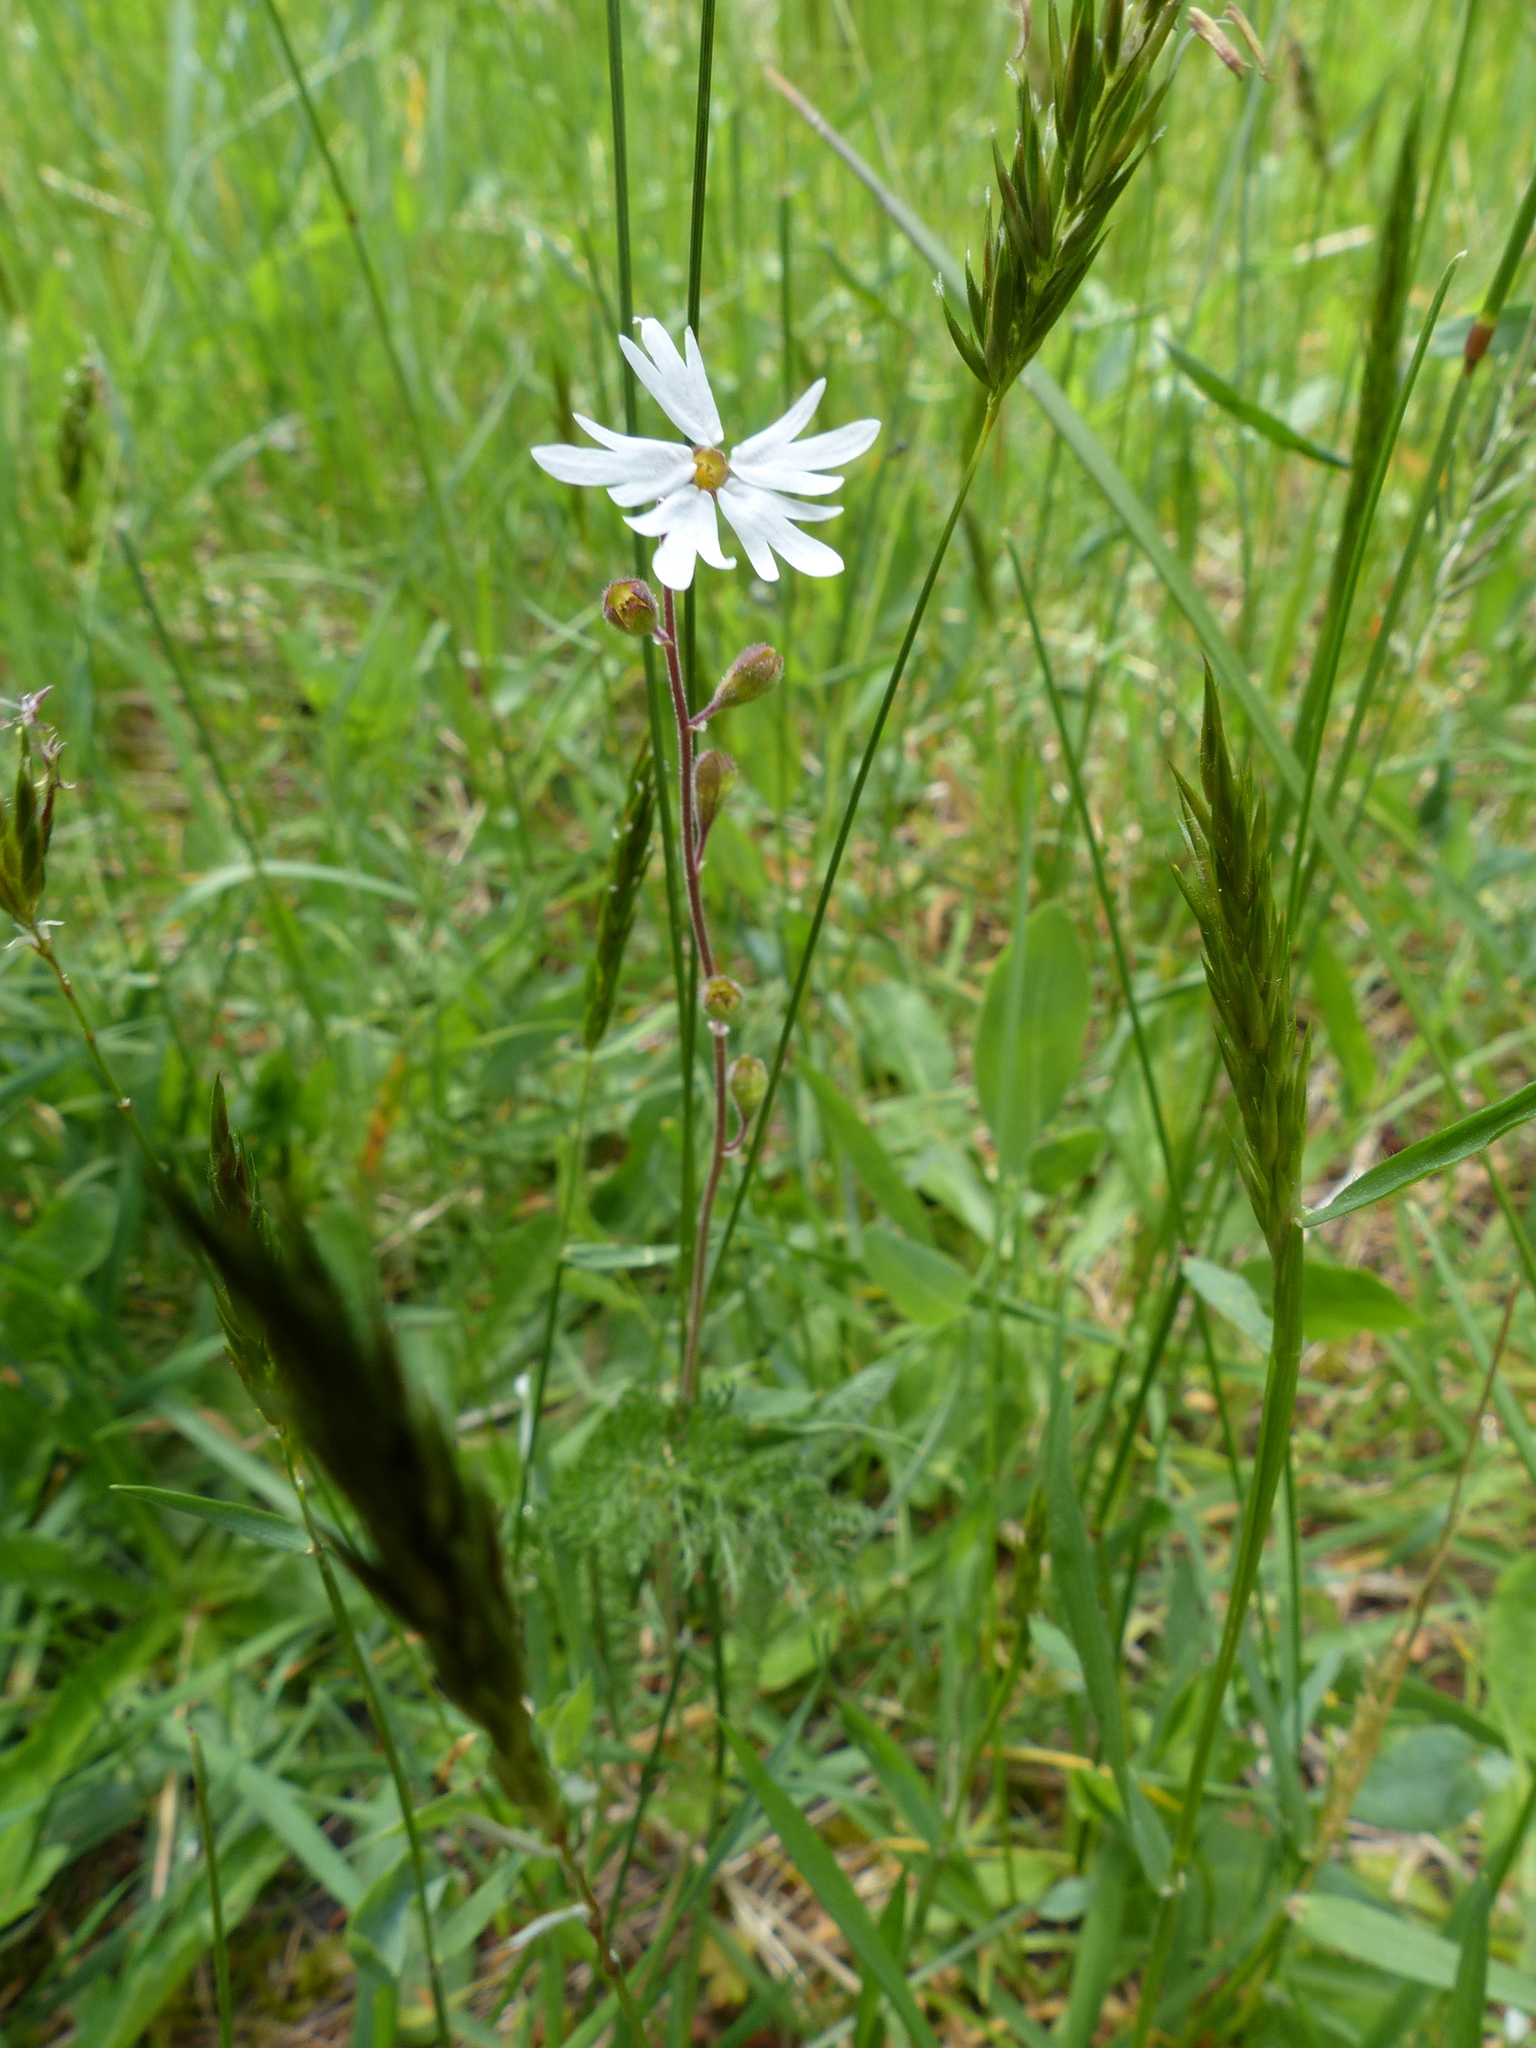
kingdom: Plantae
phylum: Tracheophyta
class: Magnoliopsida
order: Saxifragales
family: Saxifragaceae
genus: Lithophragma
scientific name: Lithophragma parviflorum
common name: Small-flowered fringe-cup
